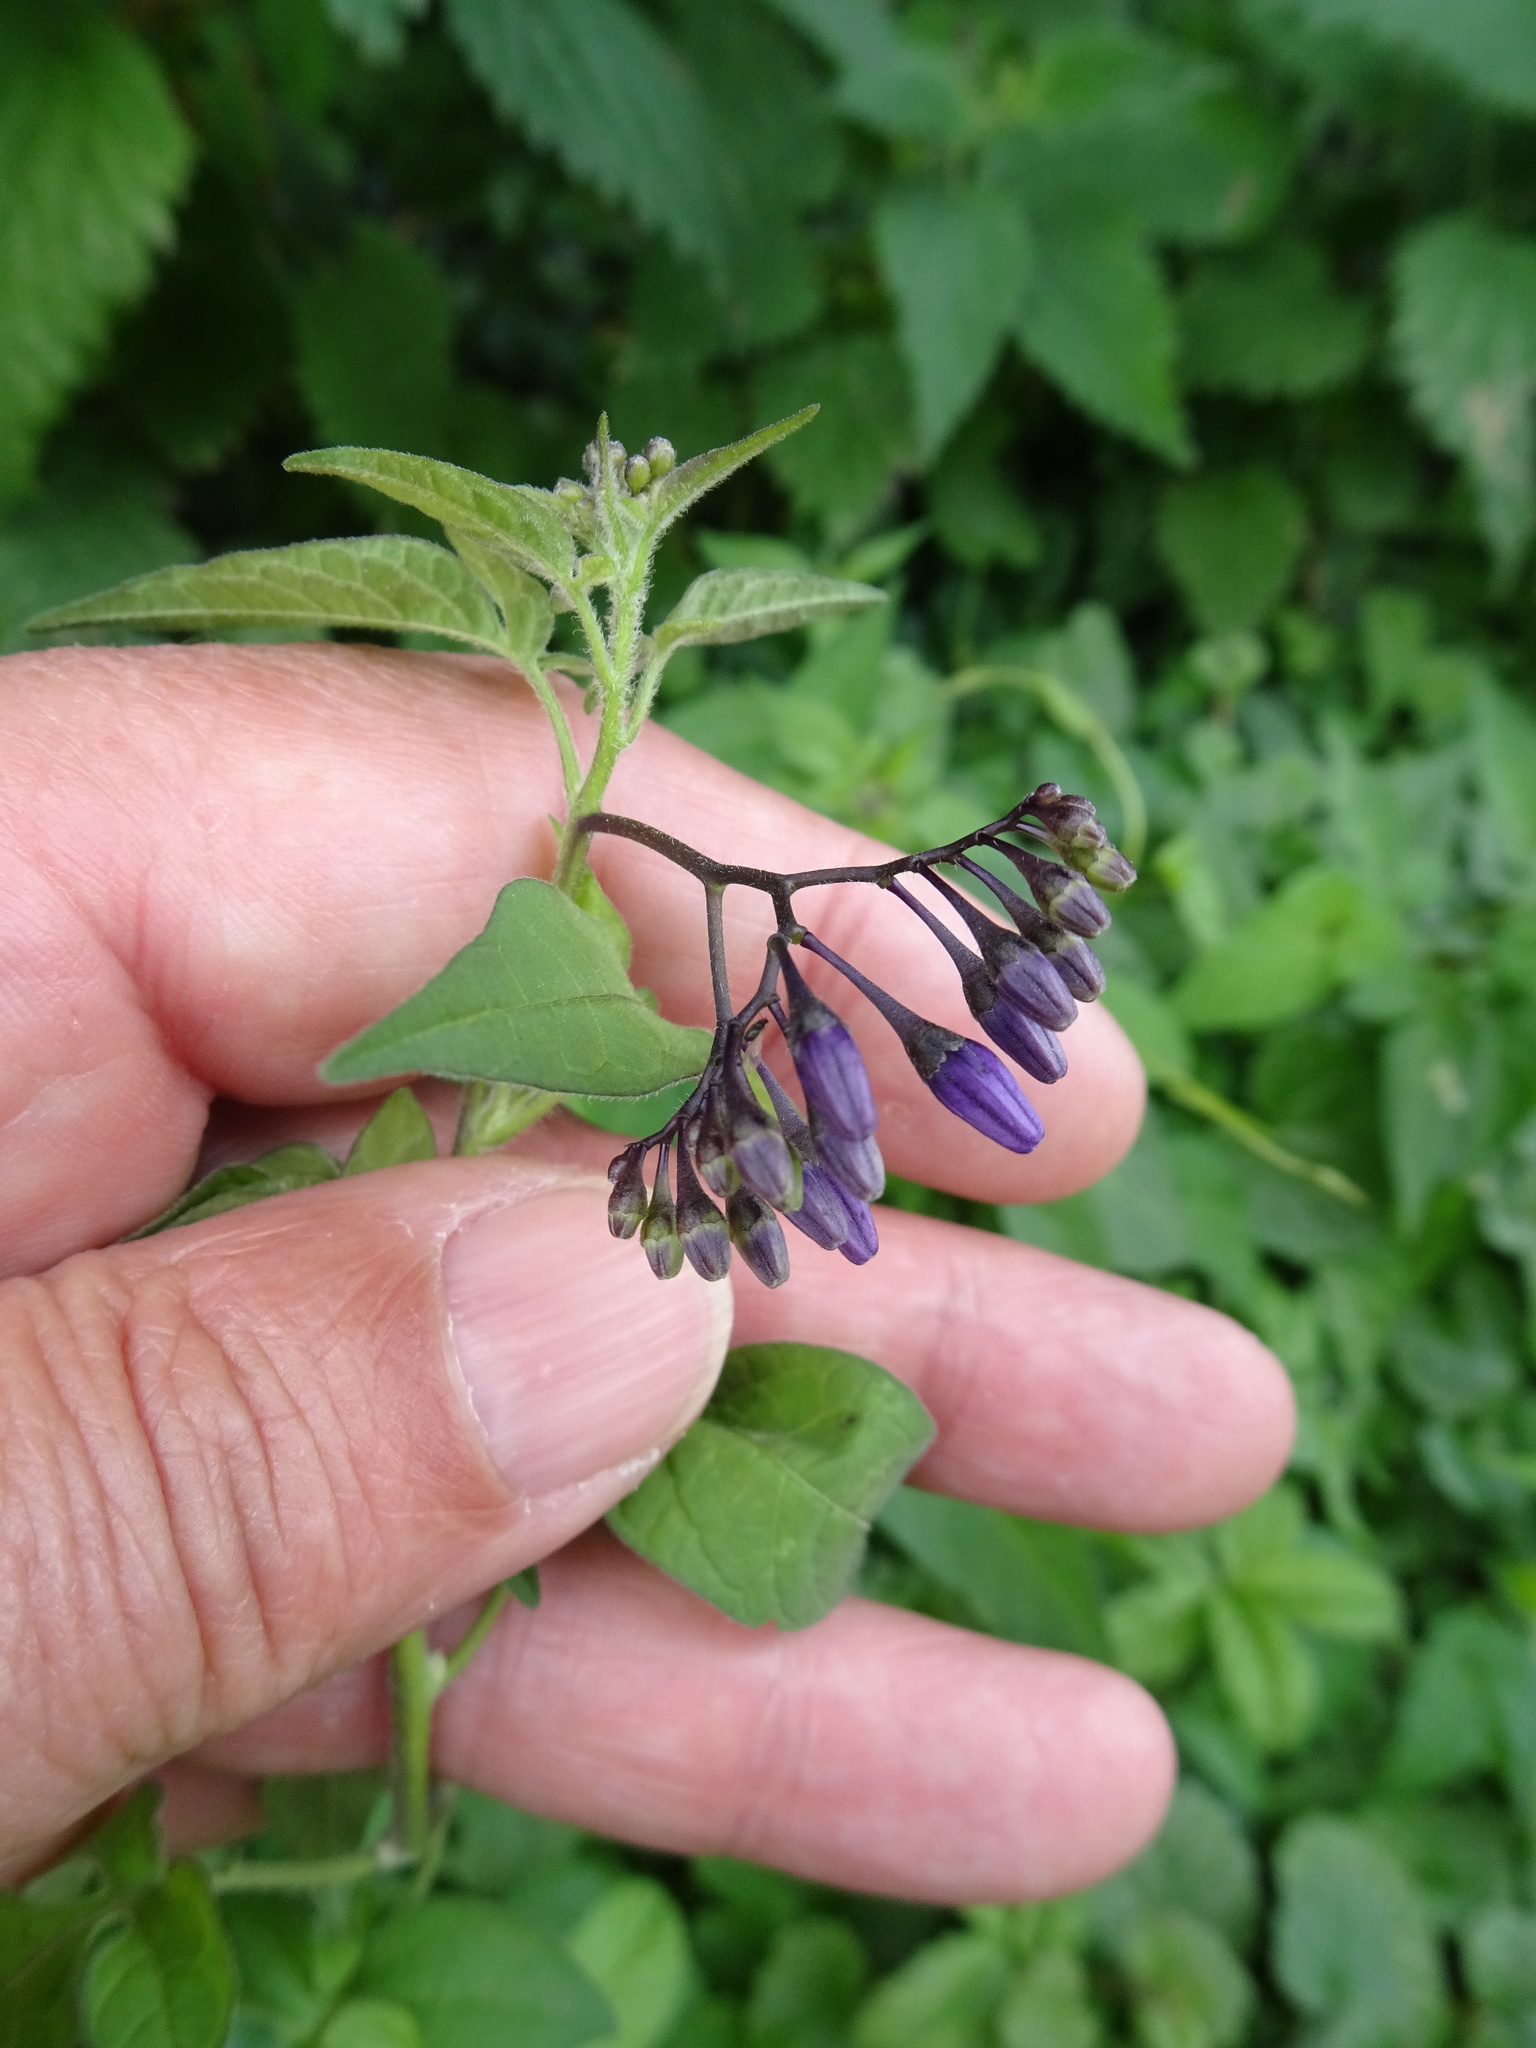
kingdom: Plantae
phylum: Tracheophyta
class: Magnoliopsida
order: Solanales
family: Solanaceae
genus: Solanum
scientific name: Solanum dulcamara
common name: Climbing nightshade
